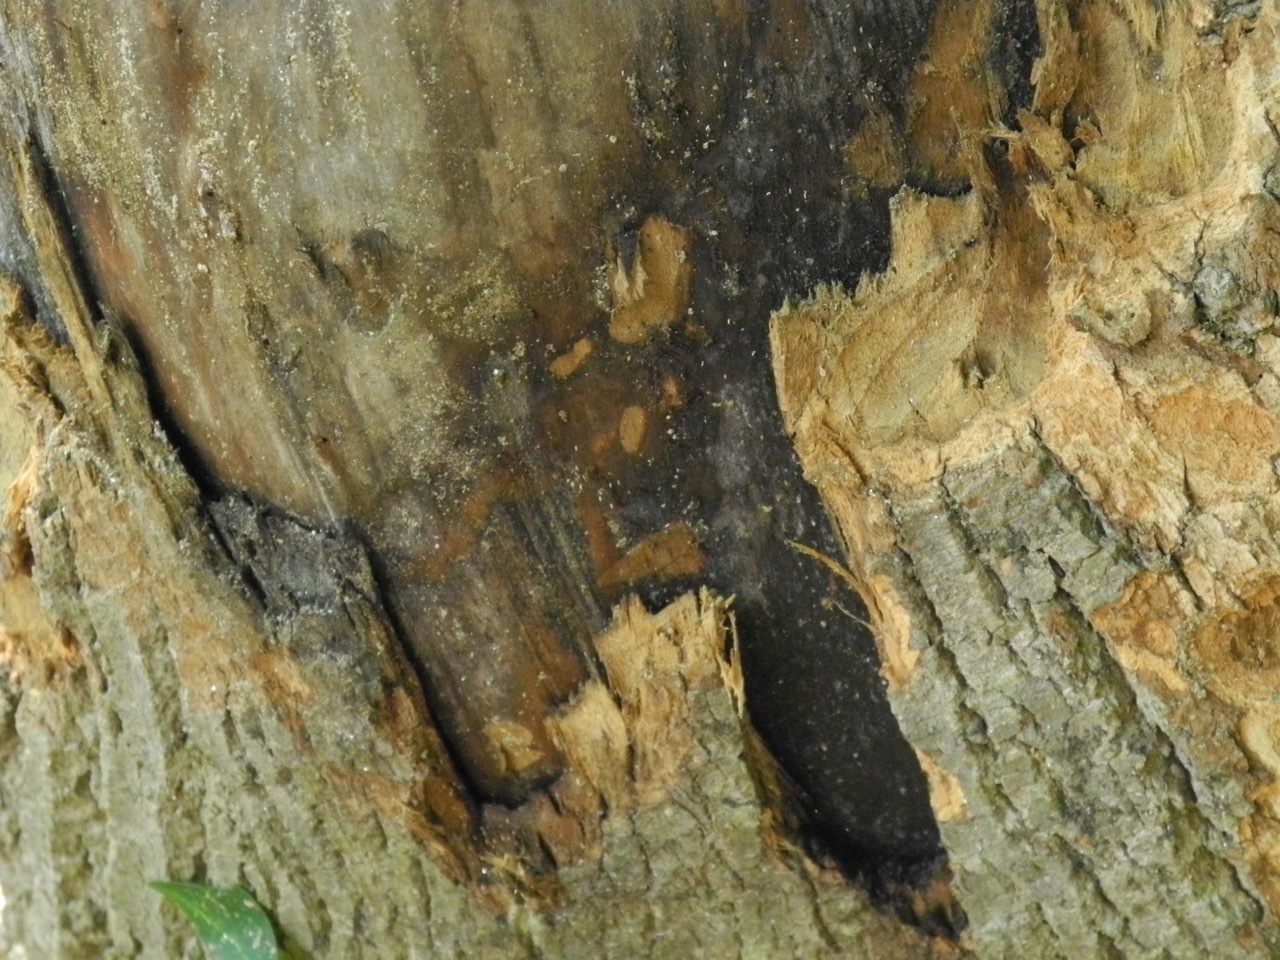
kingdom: Animalia
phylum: Chordata
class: Mammalia
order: Rodentia
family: Castoridae
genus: Castor
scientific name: Castor canadensis
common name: American beaver
